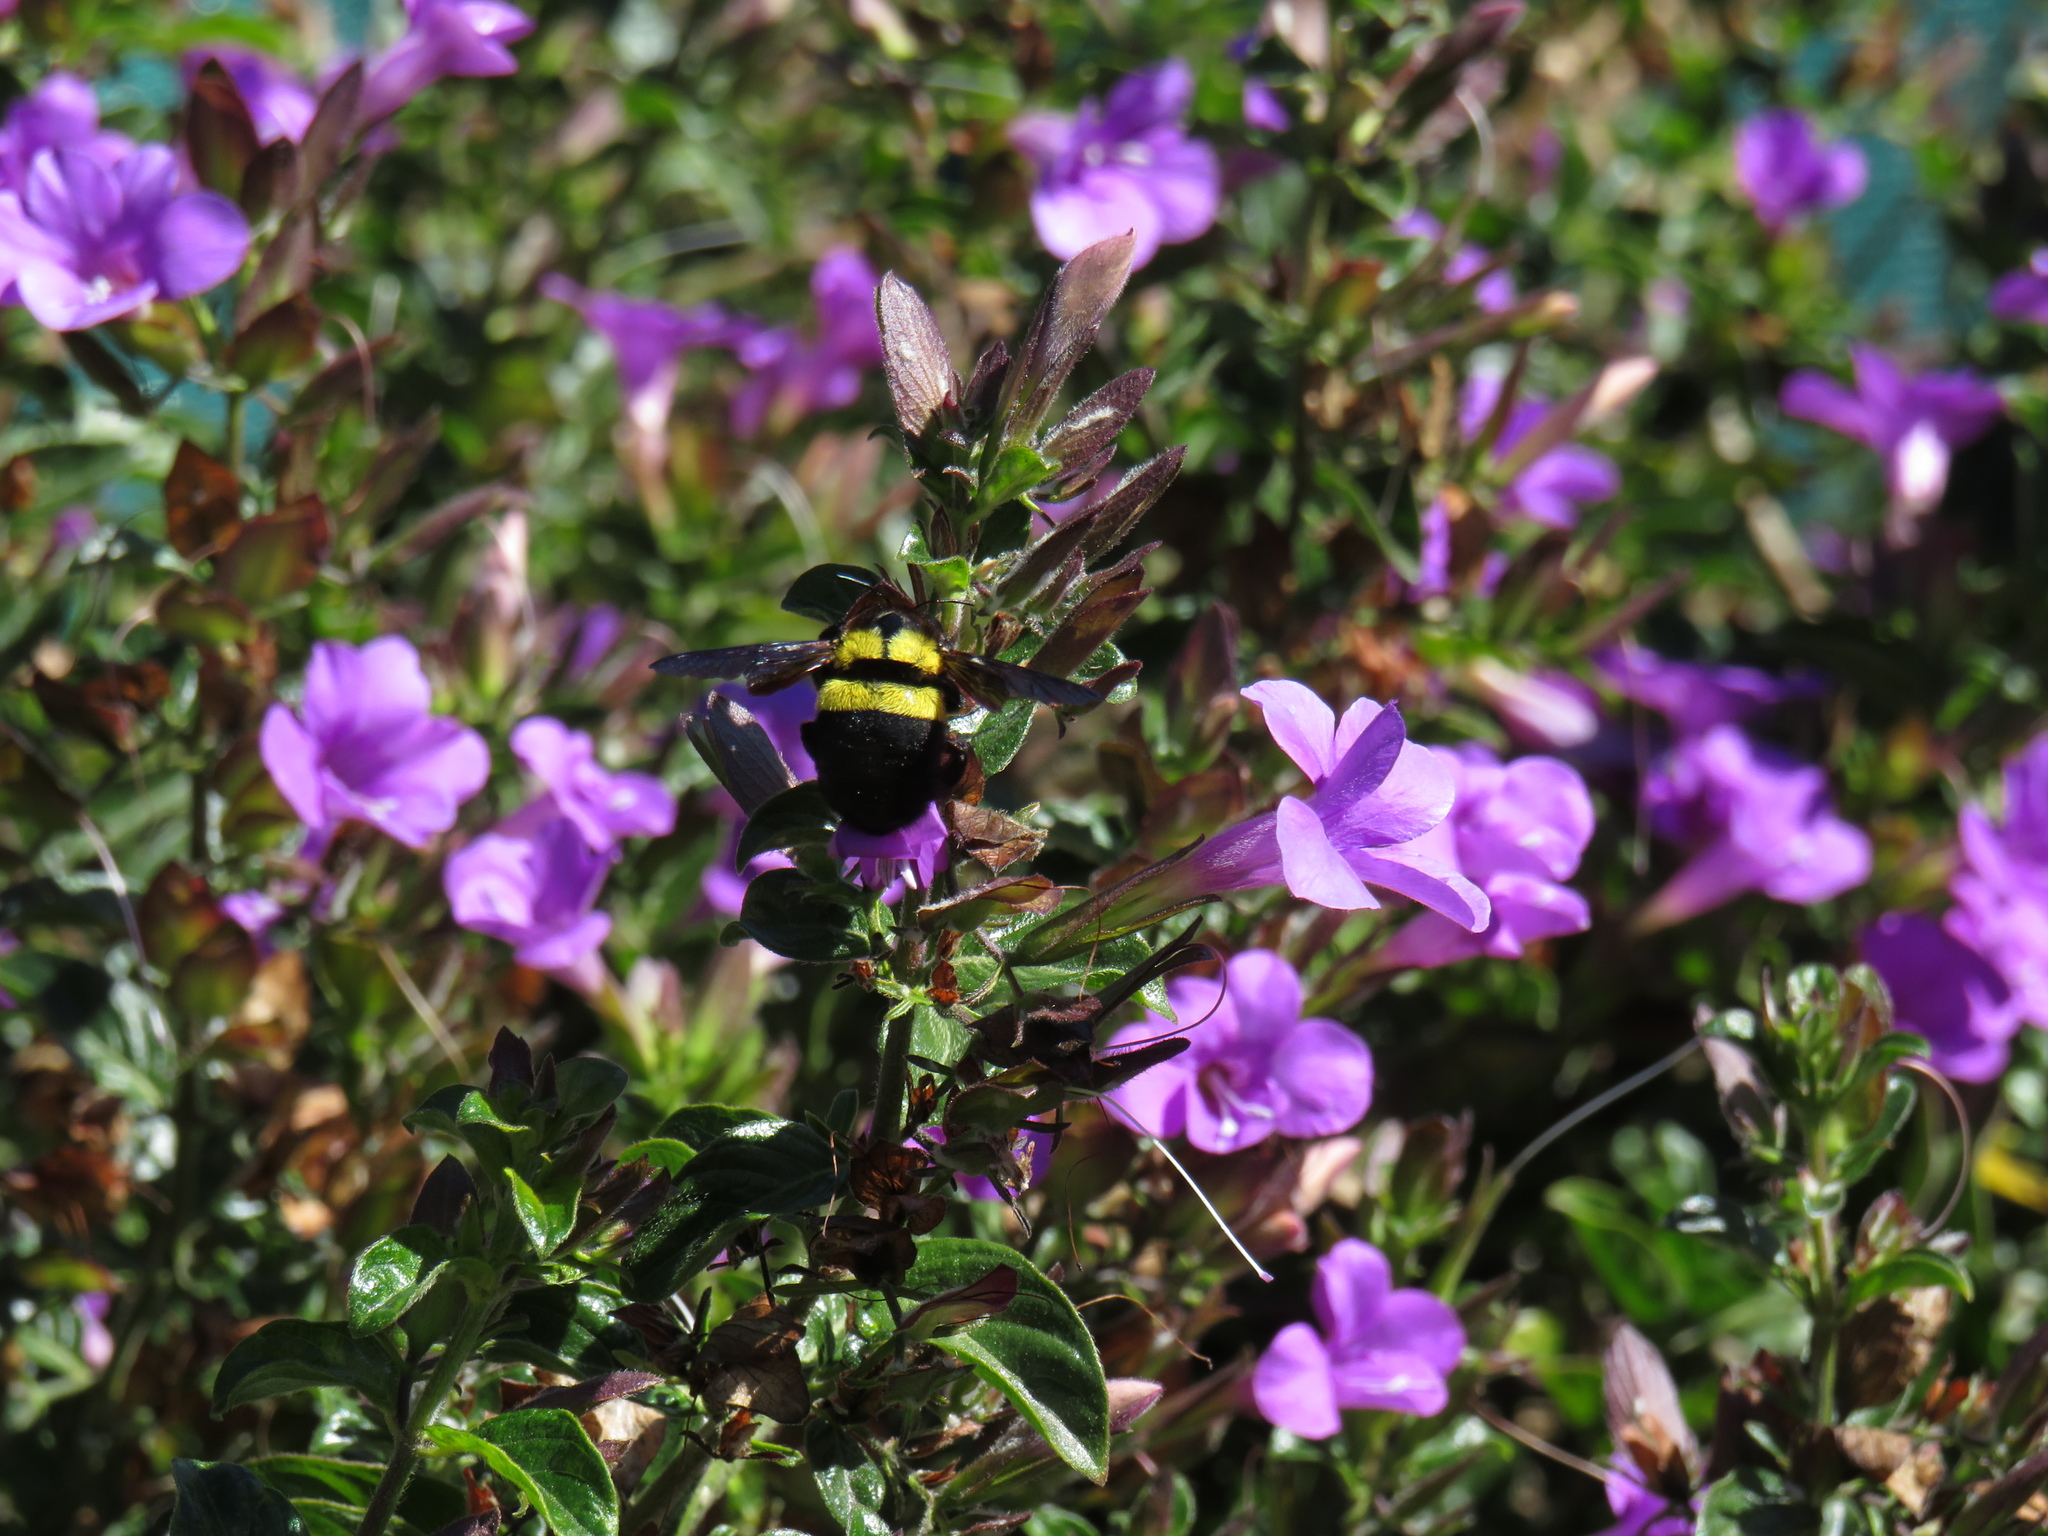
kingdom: Animalia
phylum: Arthropoda
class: Insecta
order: Hymenoptera
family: Apidae
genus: Xylocopa
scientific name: Xylocopa caffra
